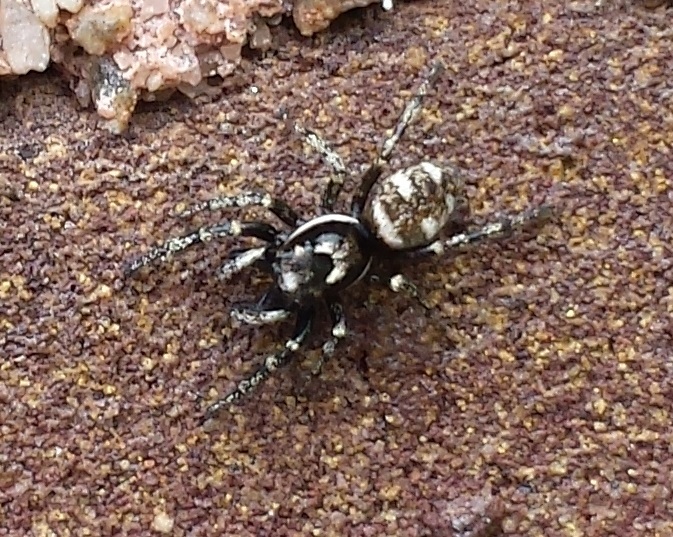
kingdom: Animalia
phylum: Arthropoda
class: Arachnida
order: Araneae
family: Salticidae
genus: Salticus
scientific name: Salticus scenicus
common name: Zebra jumper
